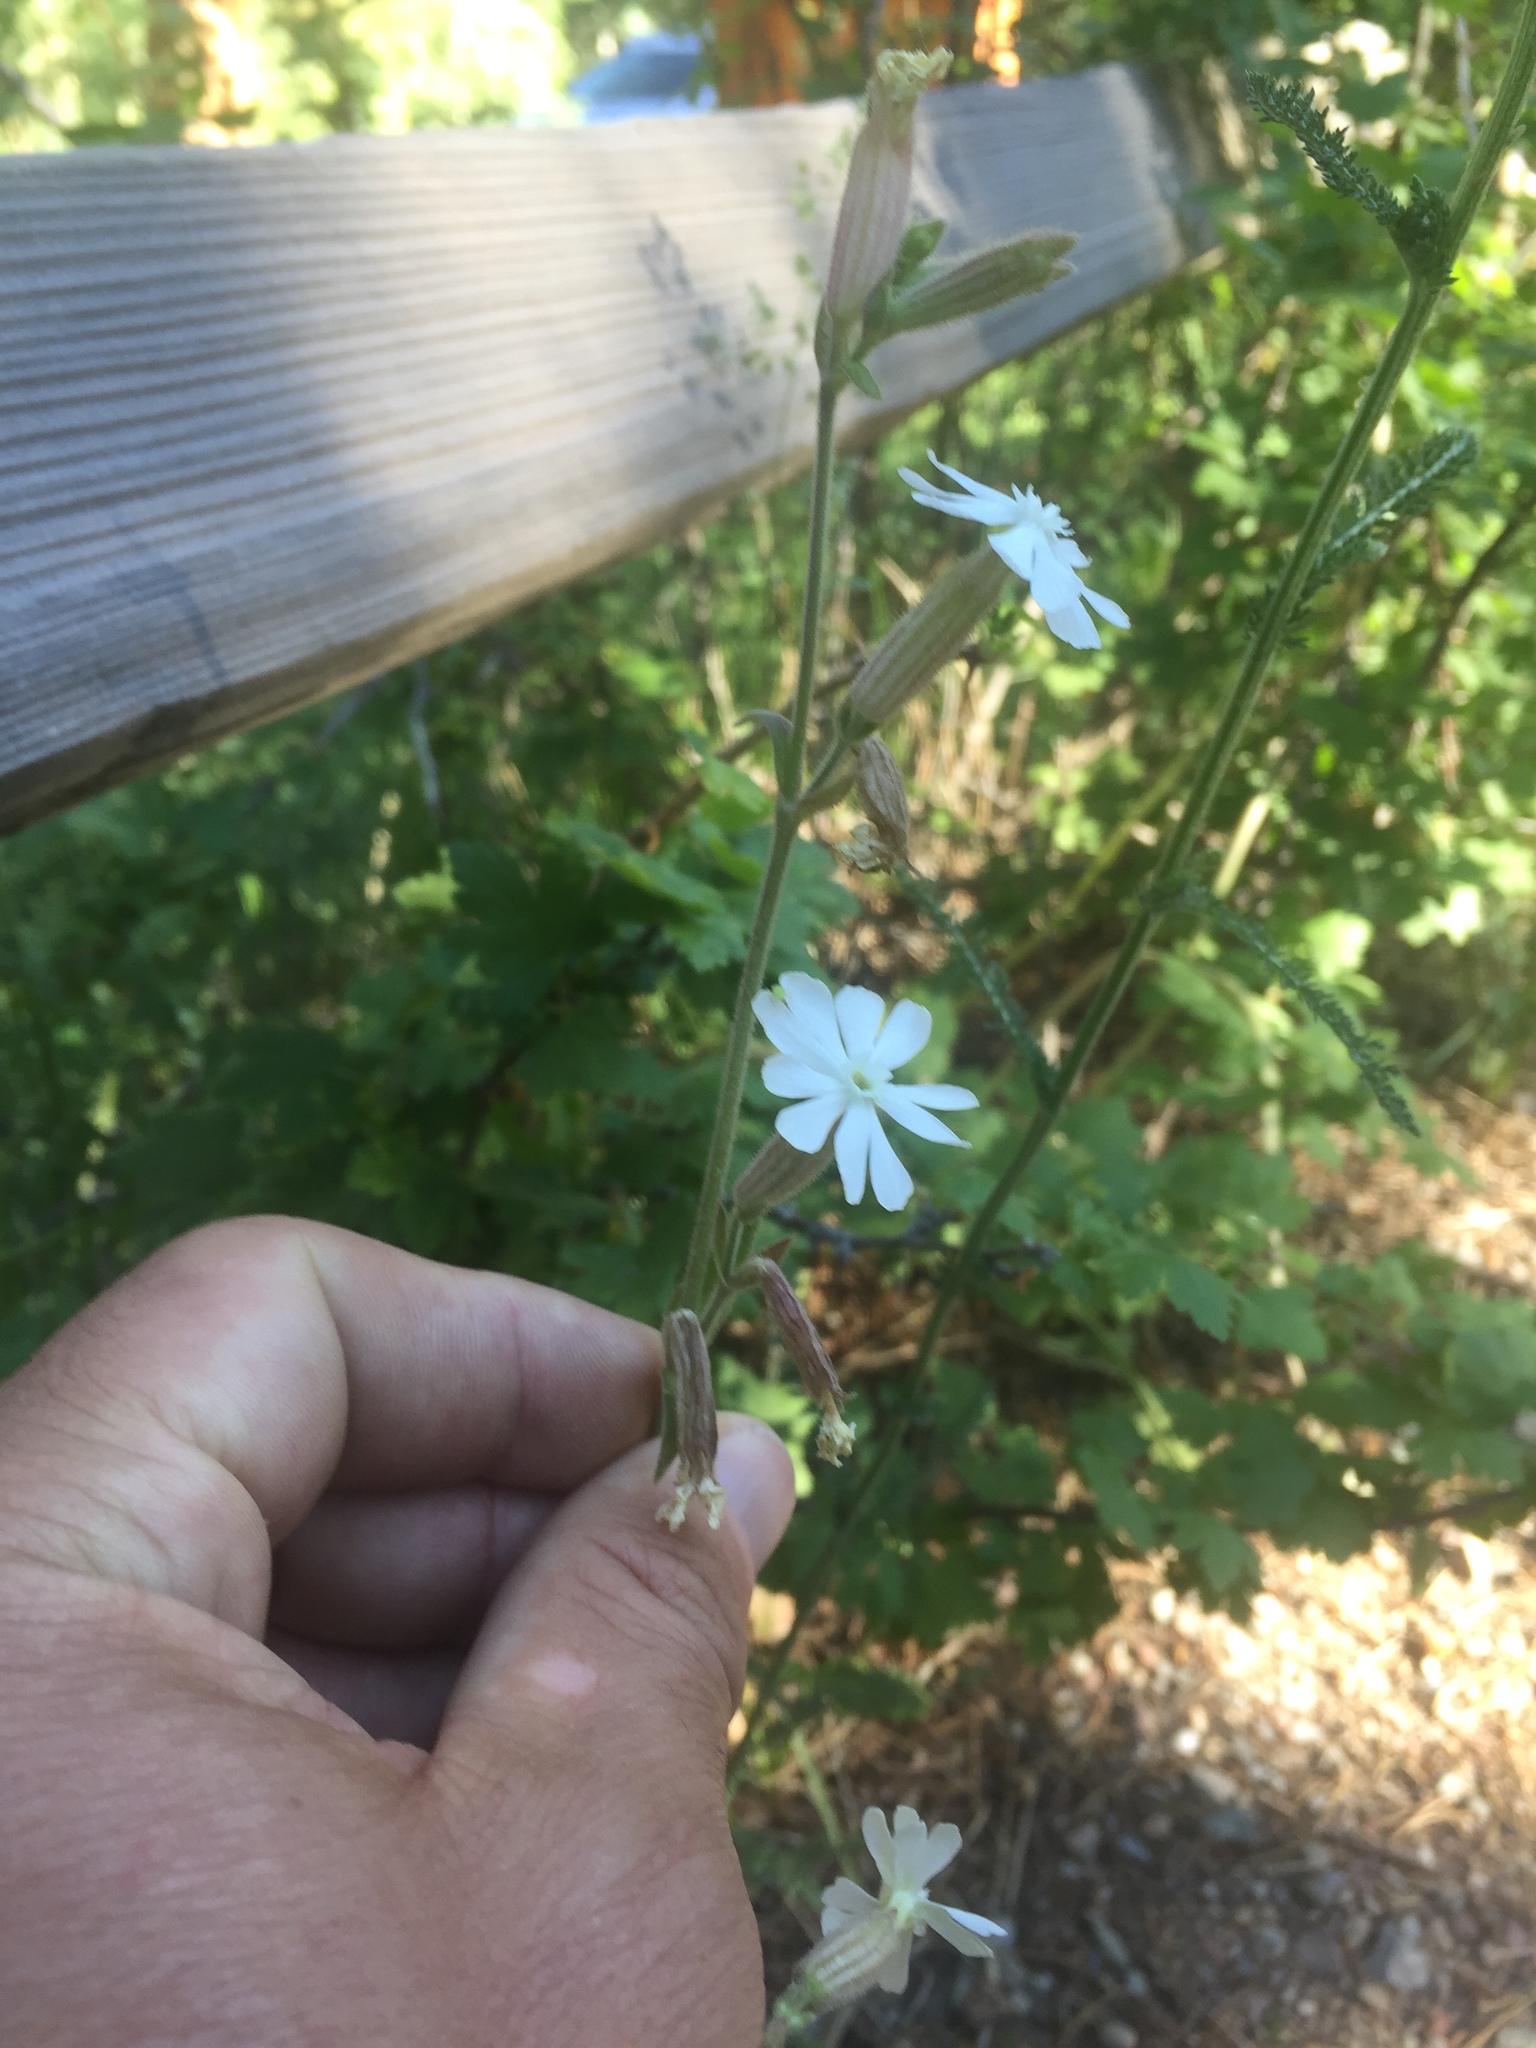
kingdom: Plantae
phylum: Tracheophyta
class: Magnoliopsida
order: Caryophyllales
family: Caryophyllaceae
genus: Silene
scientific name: Silene latifolia
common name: White campion
